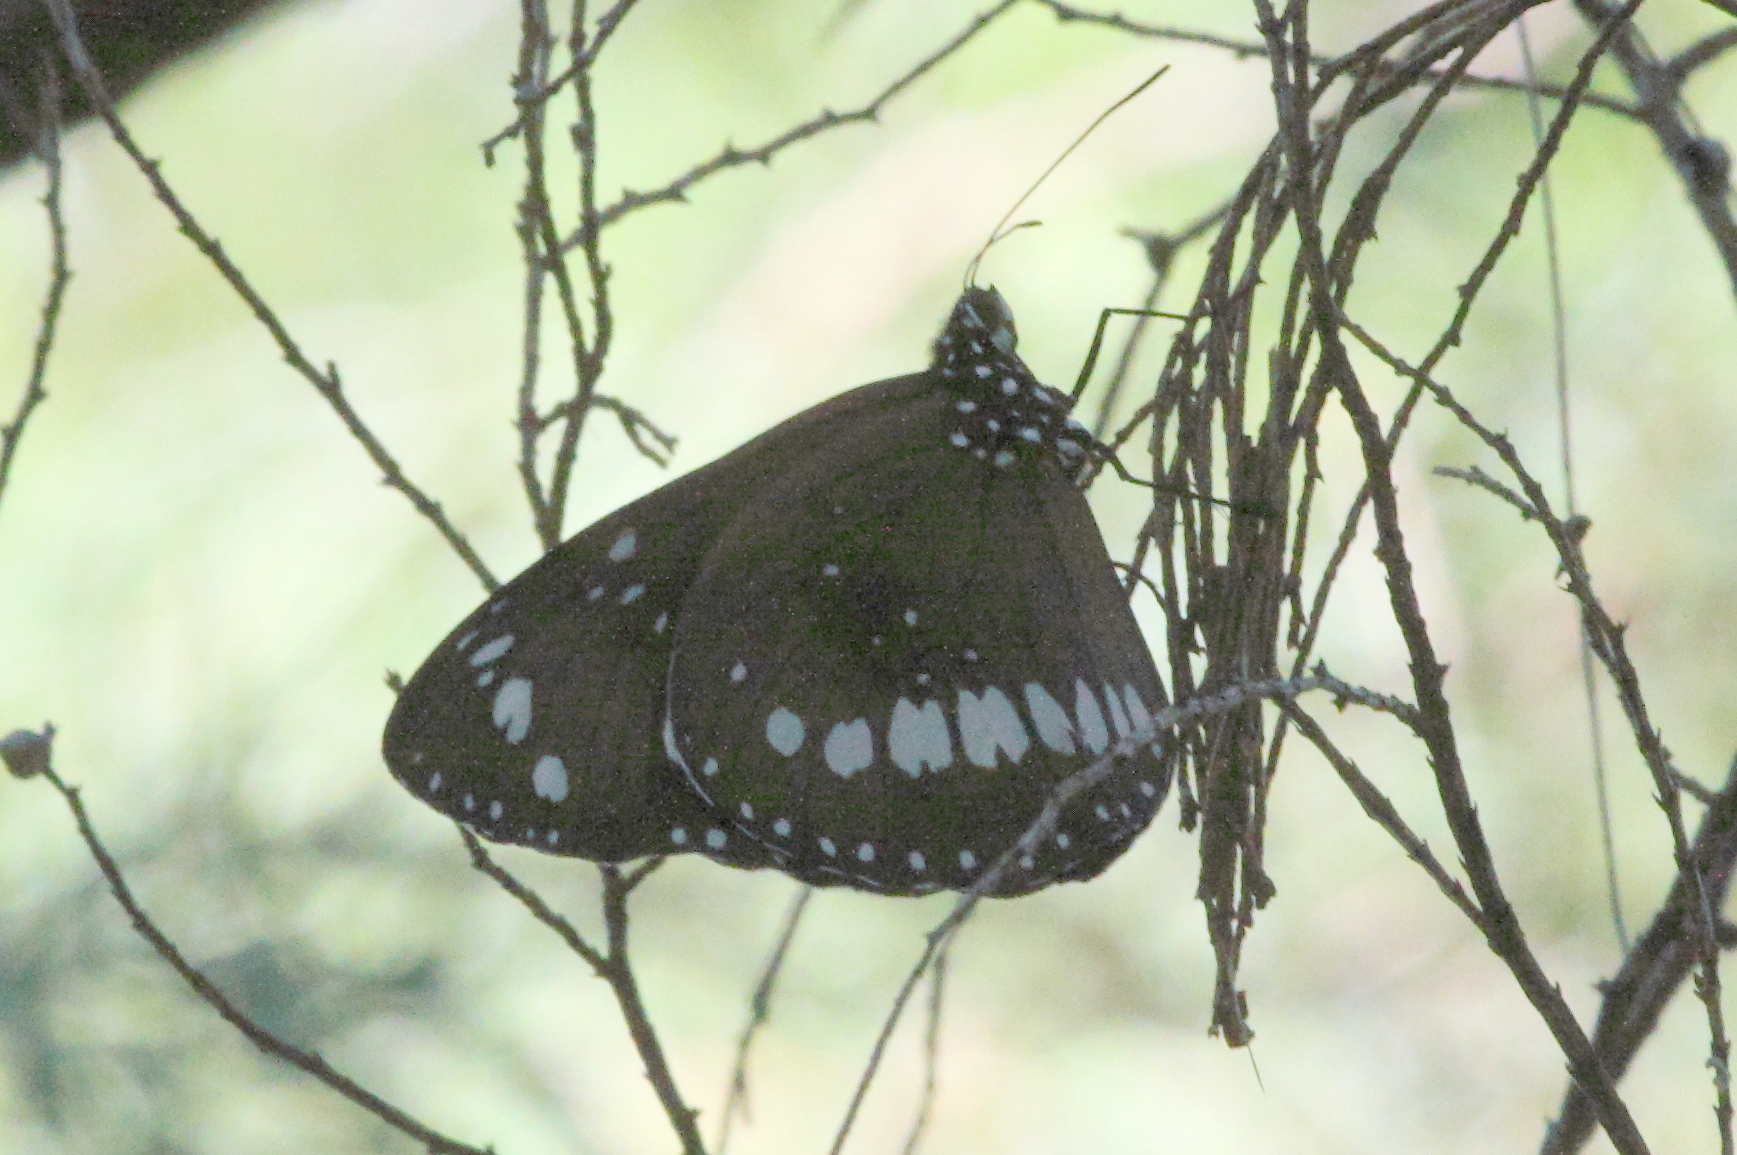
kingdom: Animalia
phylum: Arthropoda
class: Insecta
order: Lepidoptera
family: Nymphalidae
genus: Euploea
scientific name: Euploea core
